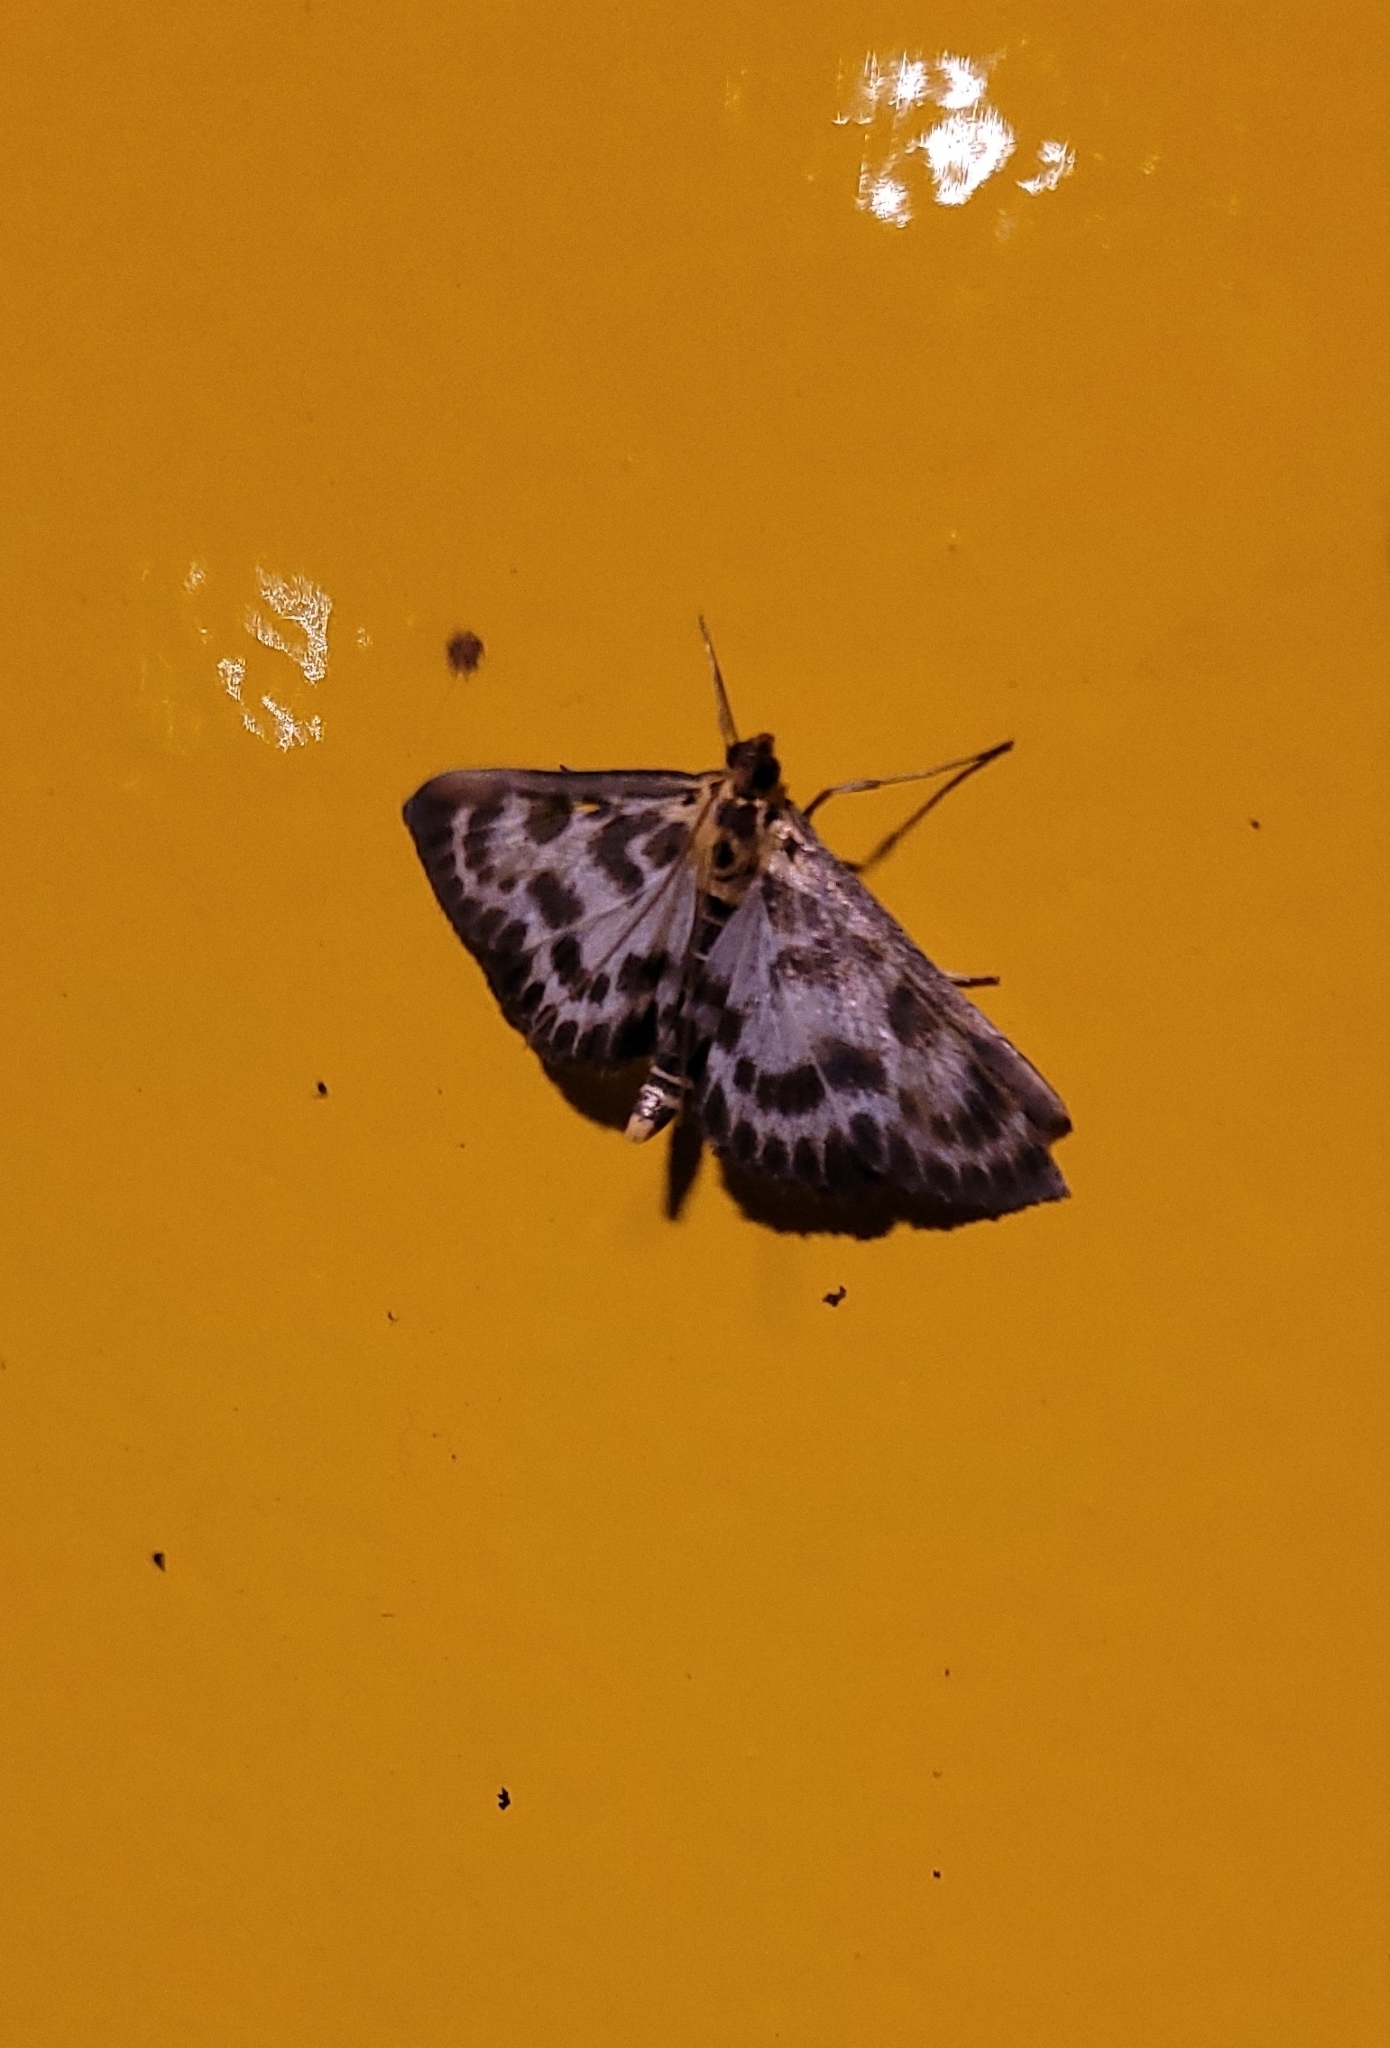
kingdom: Animalia
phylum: Arthropoda
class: Insecta
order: Lepidoptera
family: Crambidae
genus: Anania
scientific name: Anania hortulata
